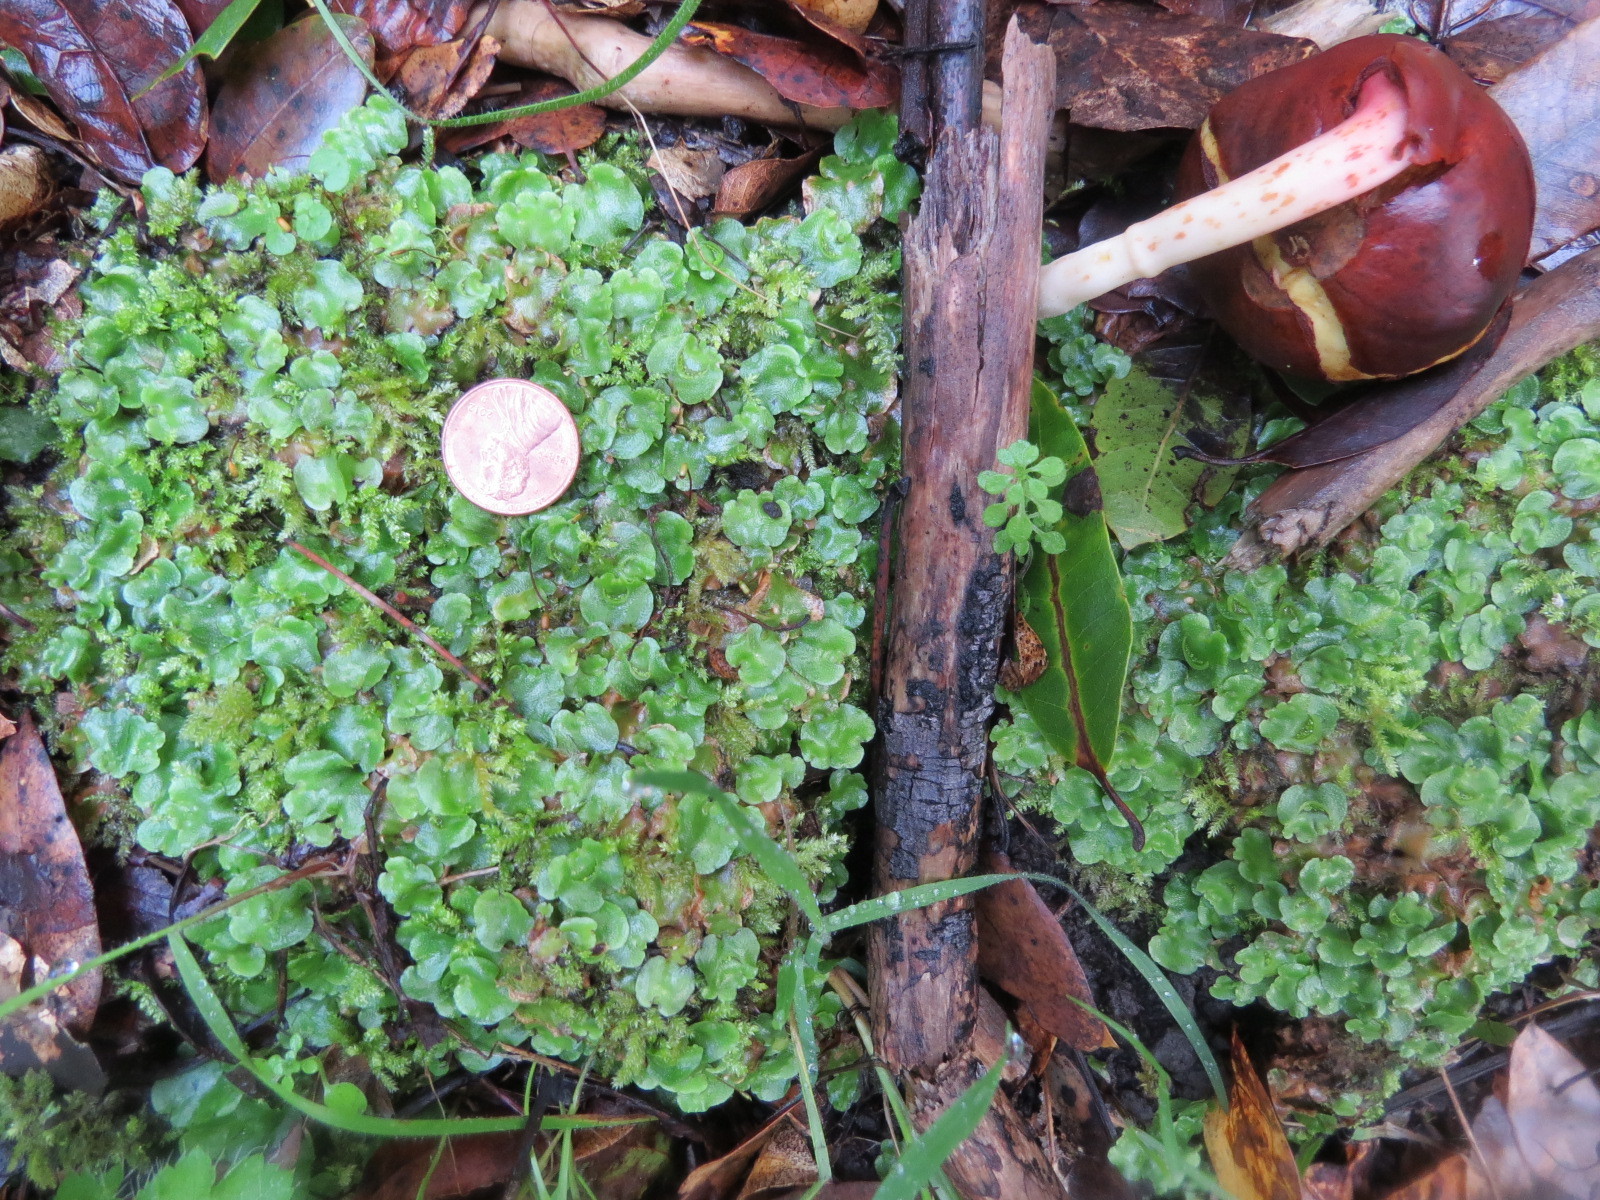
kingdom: Plantae
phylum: Marchantiophyta
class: Marchantiopsida
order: Lunulariales
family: Lunulariaceae
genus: Lunularia
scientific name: Lunularia cruciata
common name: Crescent-cup liverwort
